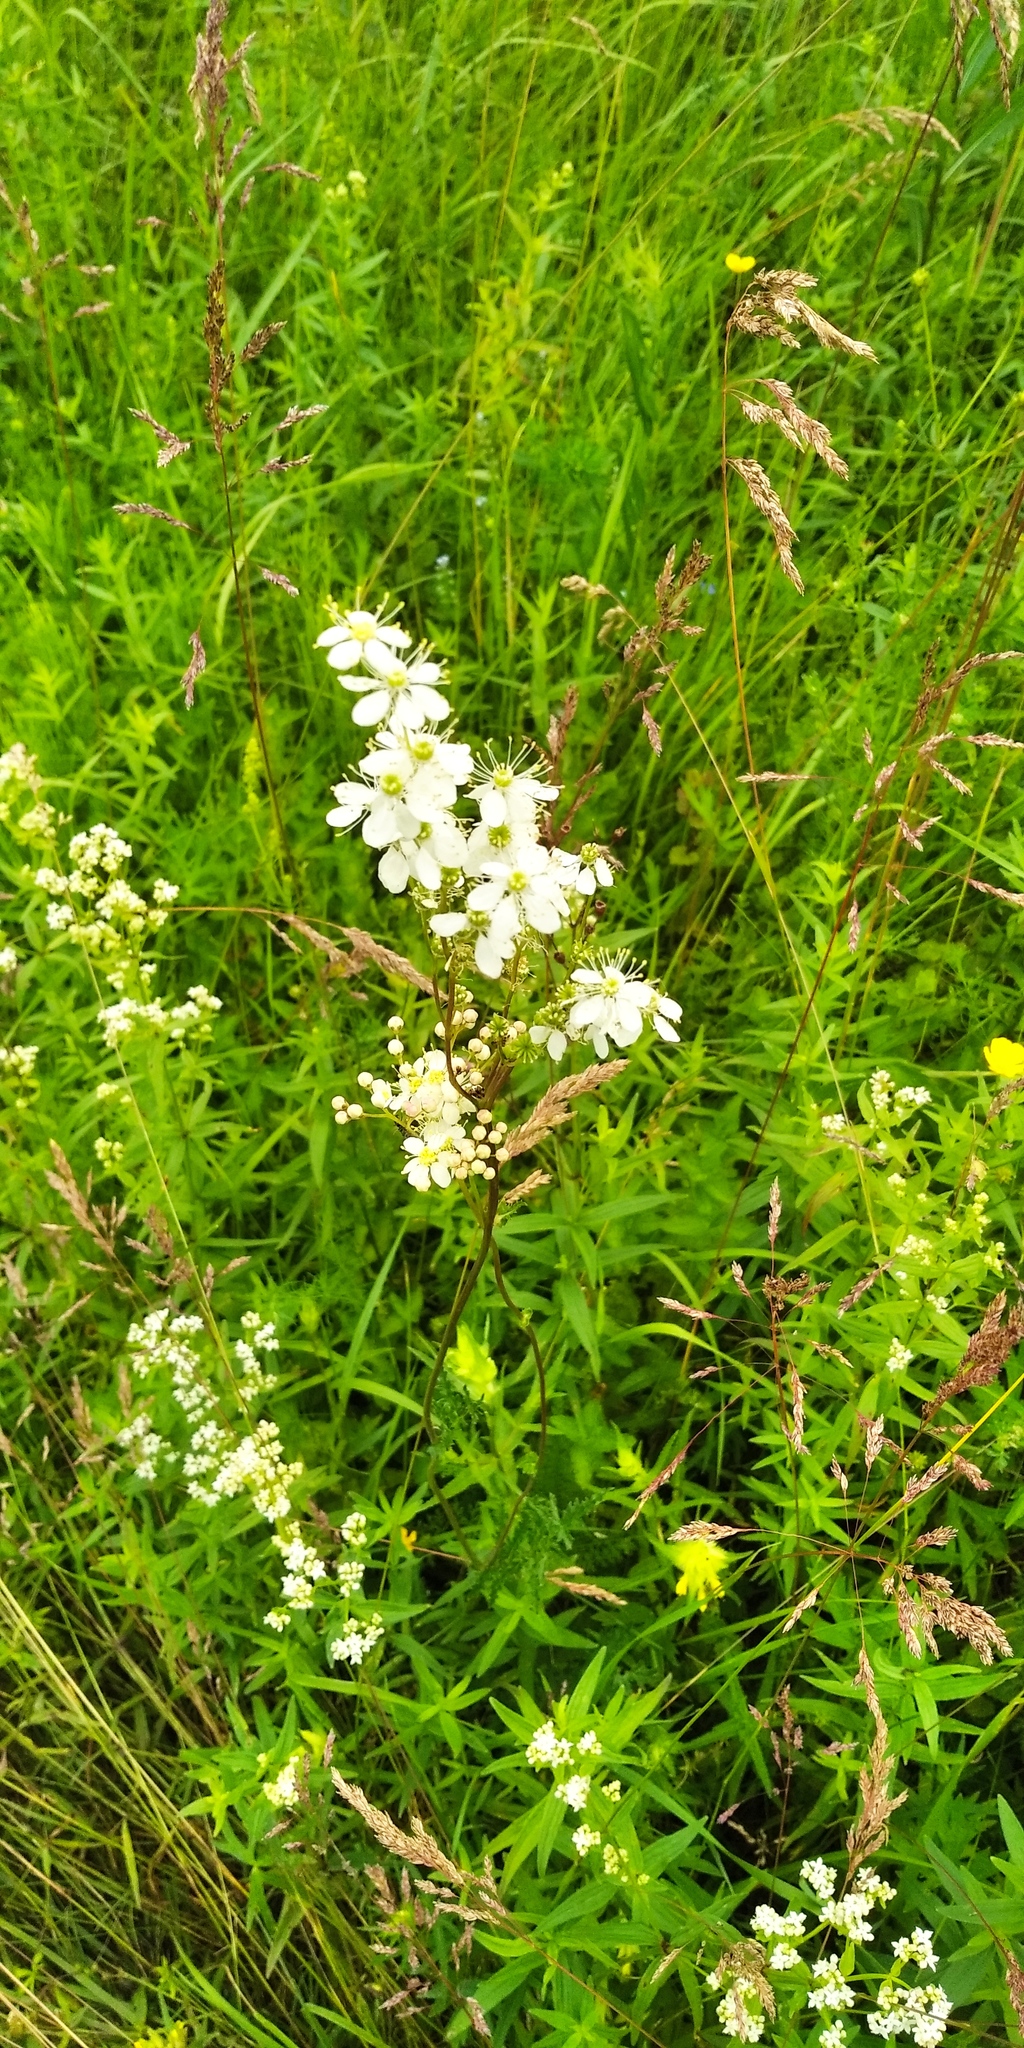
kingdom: Plantae
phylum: Tracheophyta
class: Magnoliopsida
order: Rosales
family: Rosaceae
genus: Filipendula
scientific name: Filipendula vulgaris
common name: Dropwort
